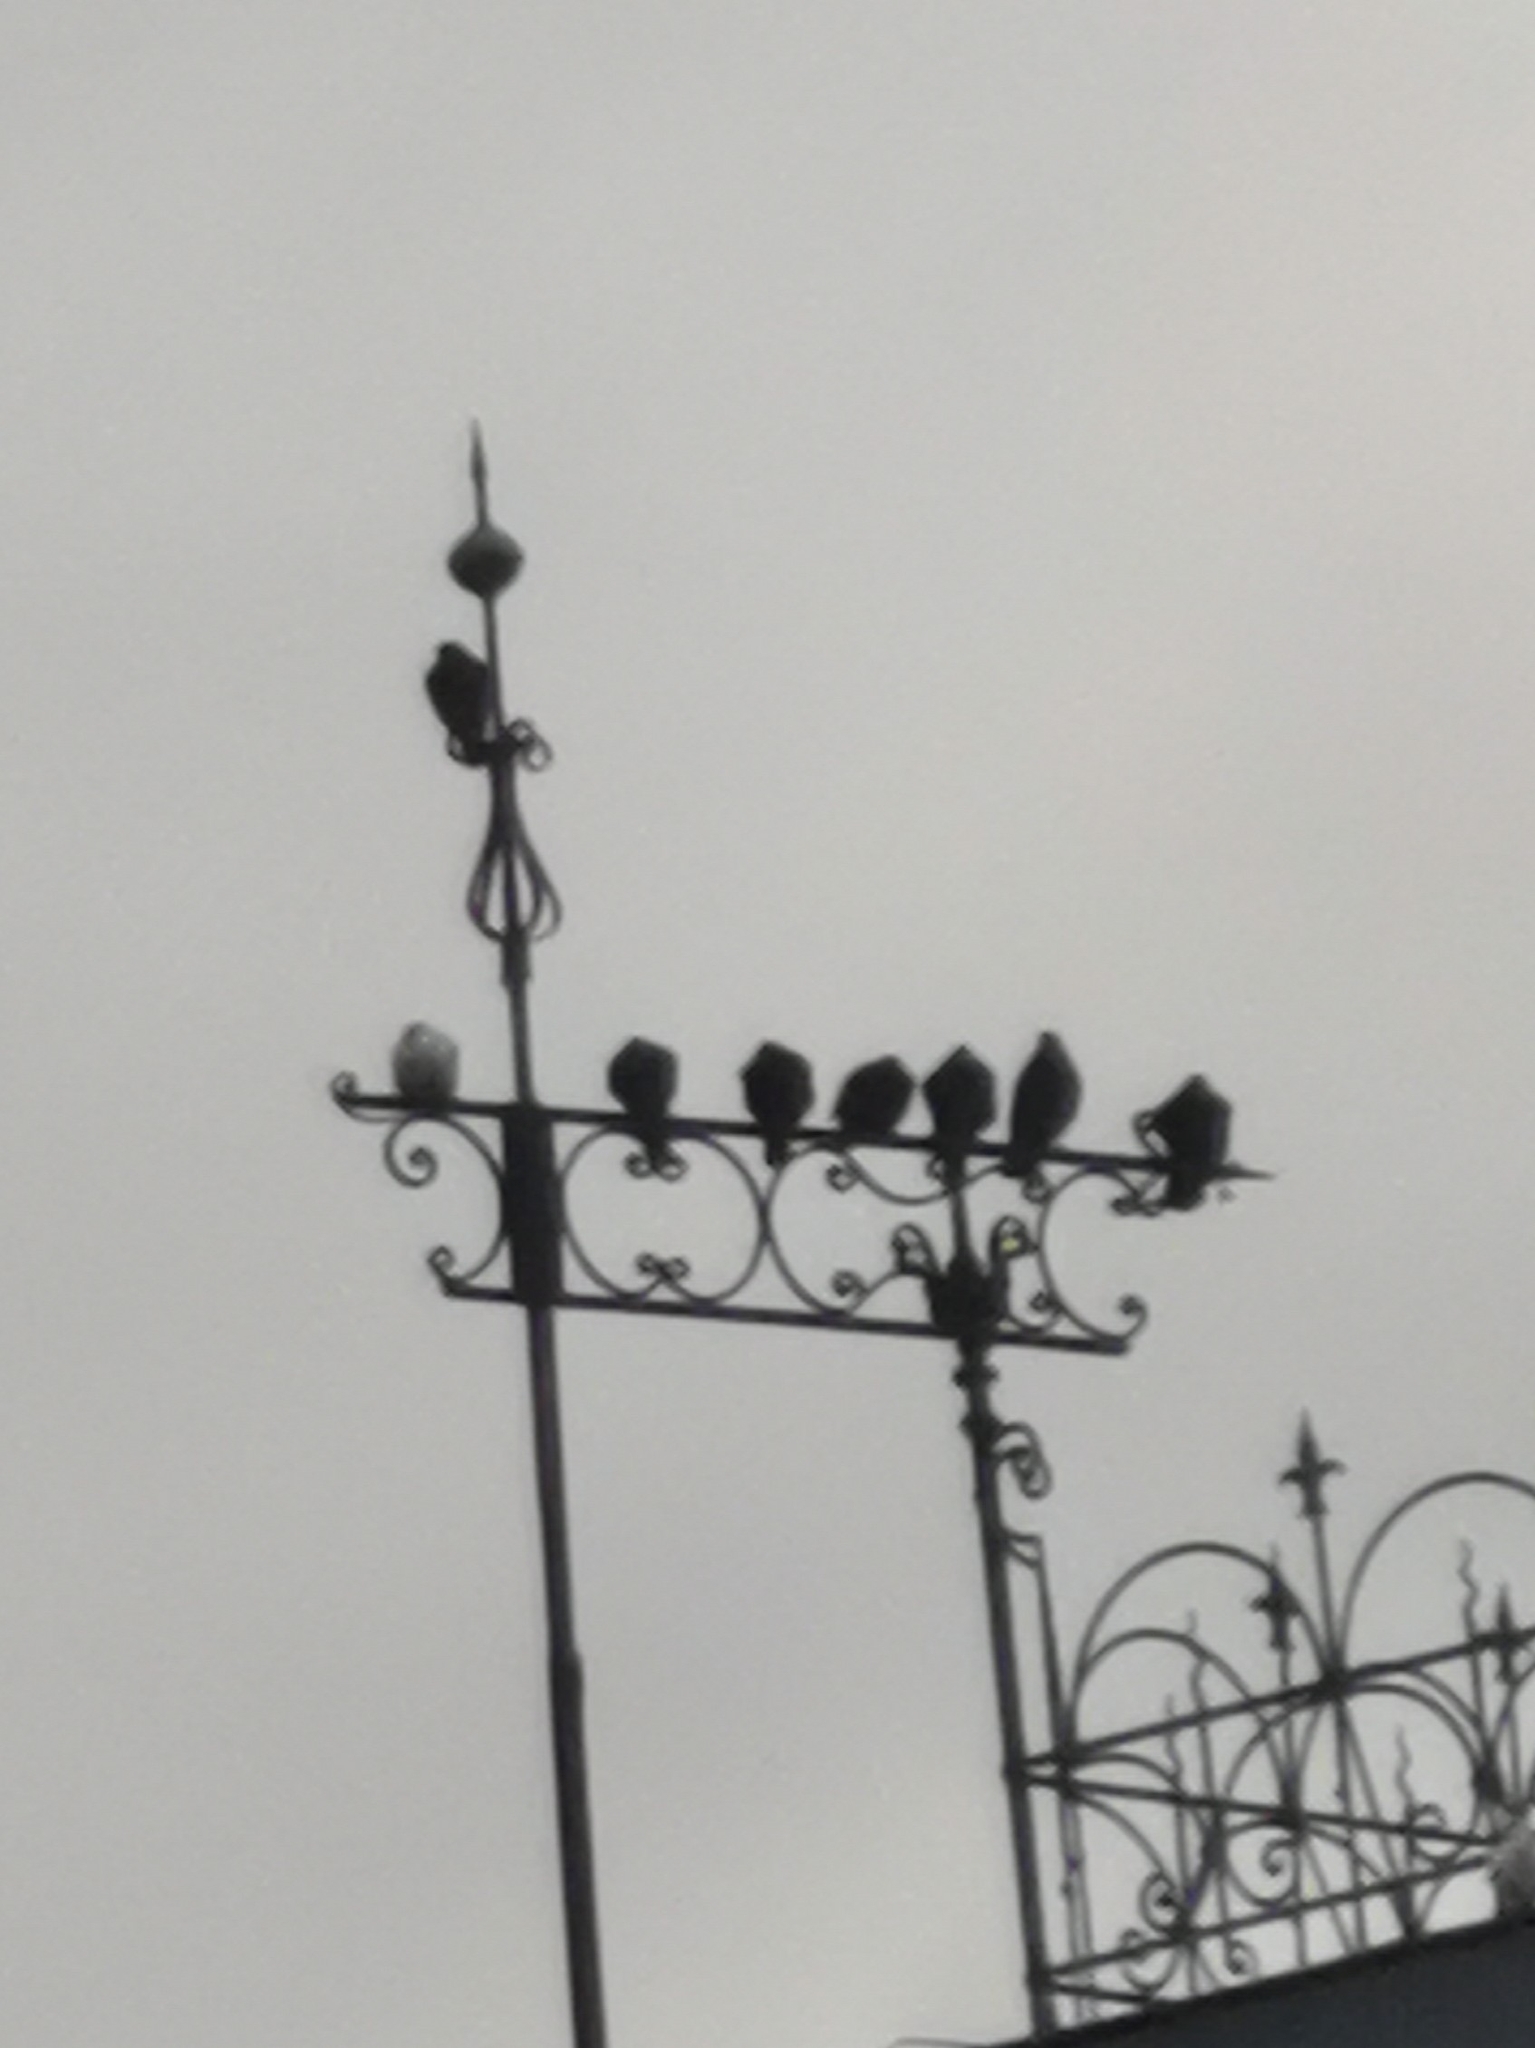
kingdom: Animalia
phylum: Chordata
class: Aves
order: Columbiformes
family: Columbidae
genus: Columba
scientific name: Columba livia
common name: Rock pigeon
